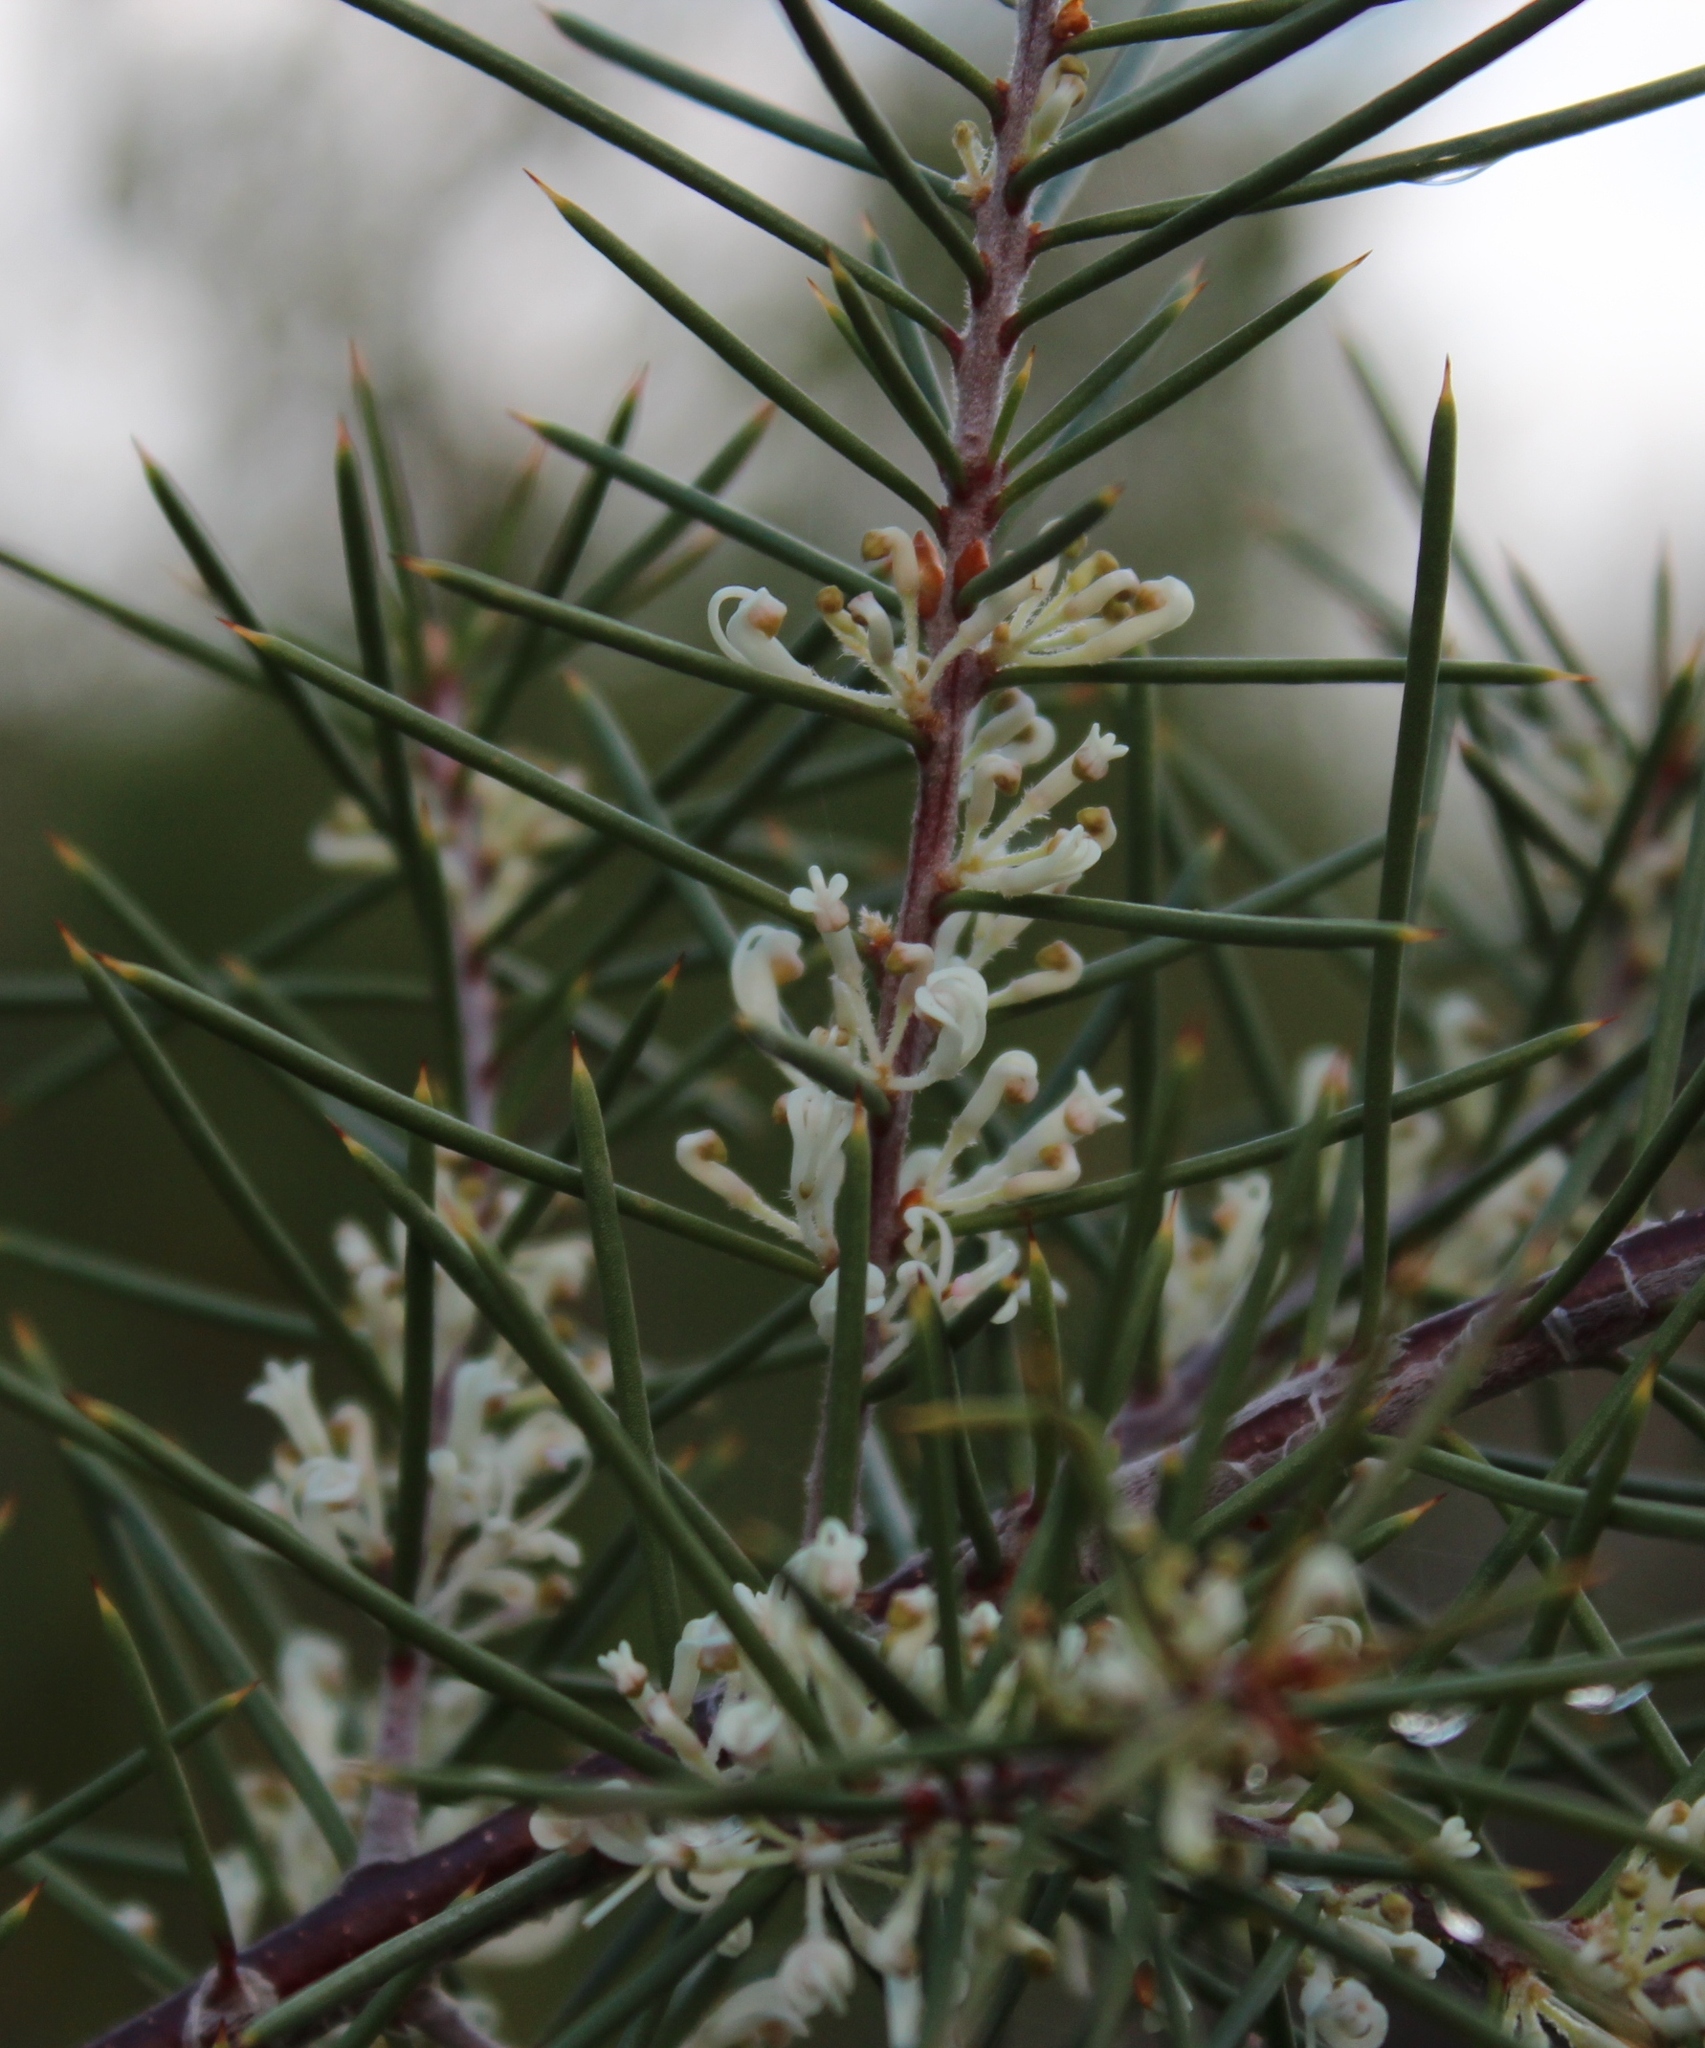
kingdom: Plantae
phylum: Tracheophyta
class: Magnoliopsida
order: Proteales
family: Proteaceae
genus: Hakea
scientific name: Hakea sericea
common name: Needle bush
